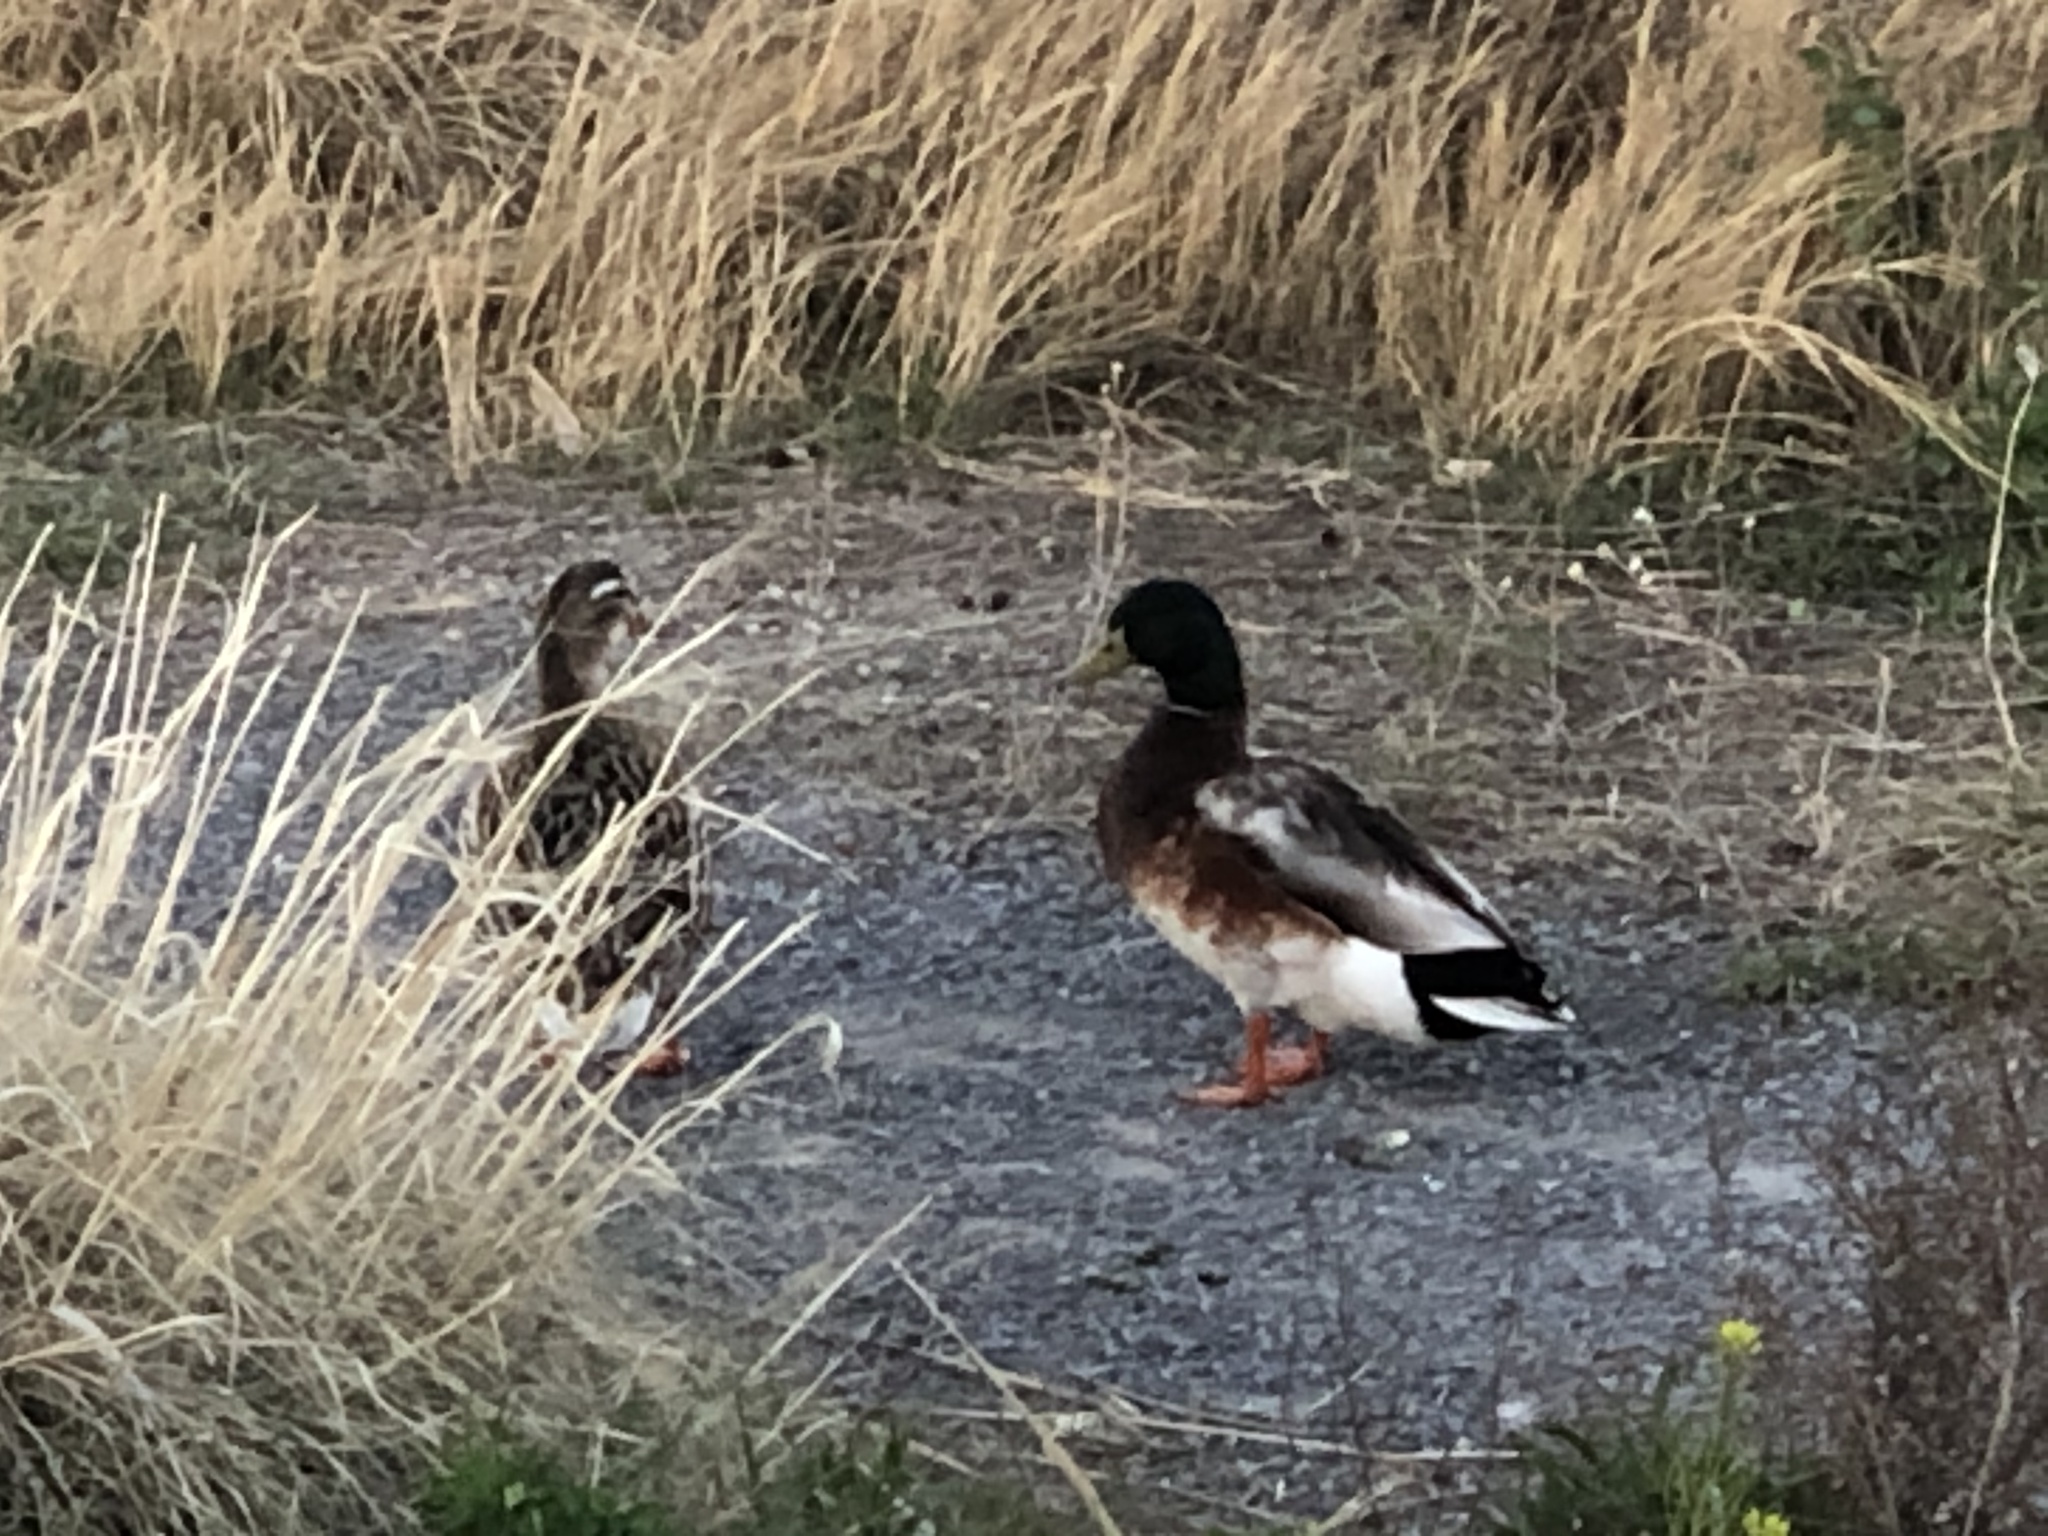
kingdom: Animalia
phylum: Chordata
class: Aves
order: Anseriformes
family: Anatidae
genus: Anas
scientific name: Anas platyrhynchos
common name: Mallard
